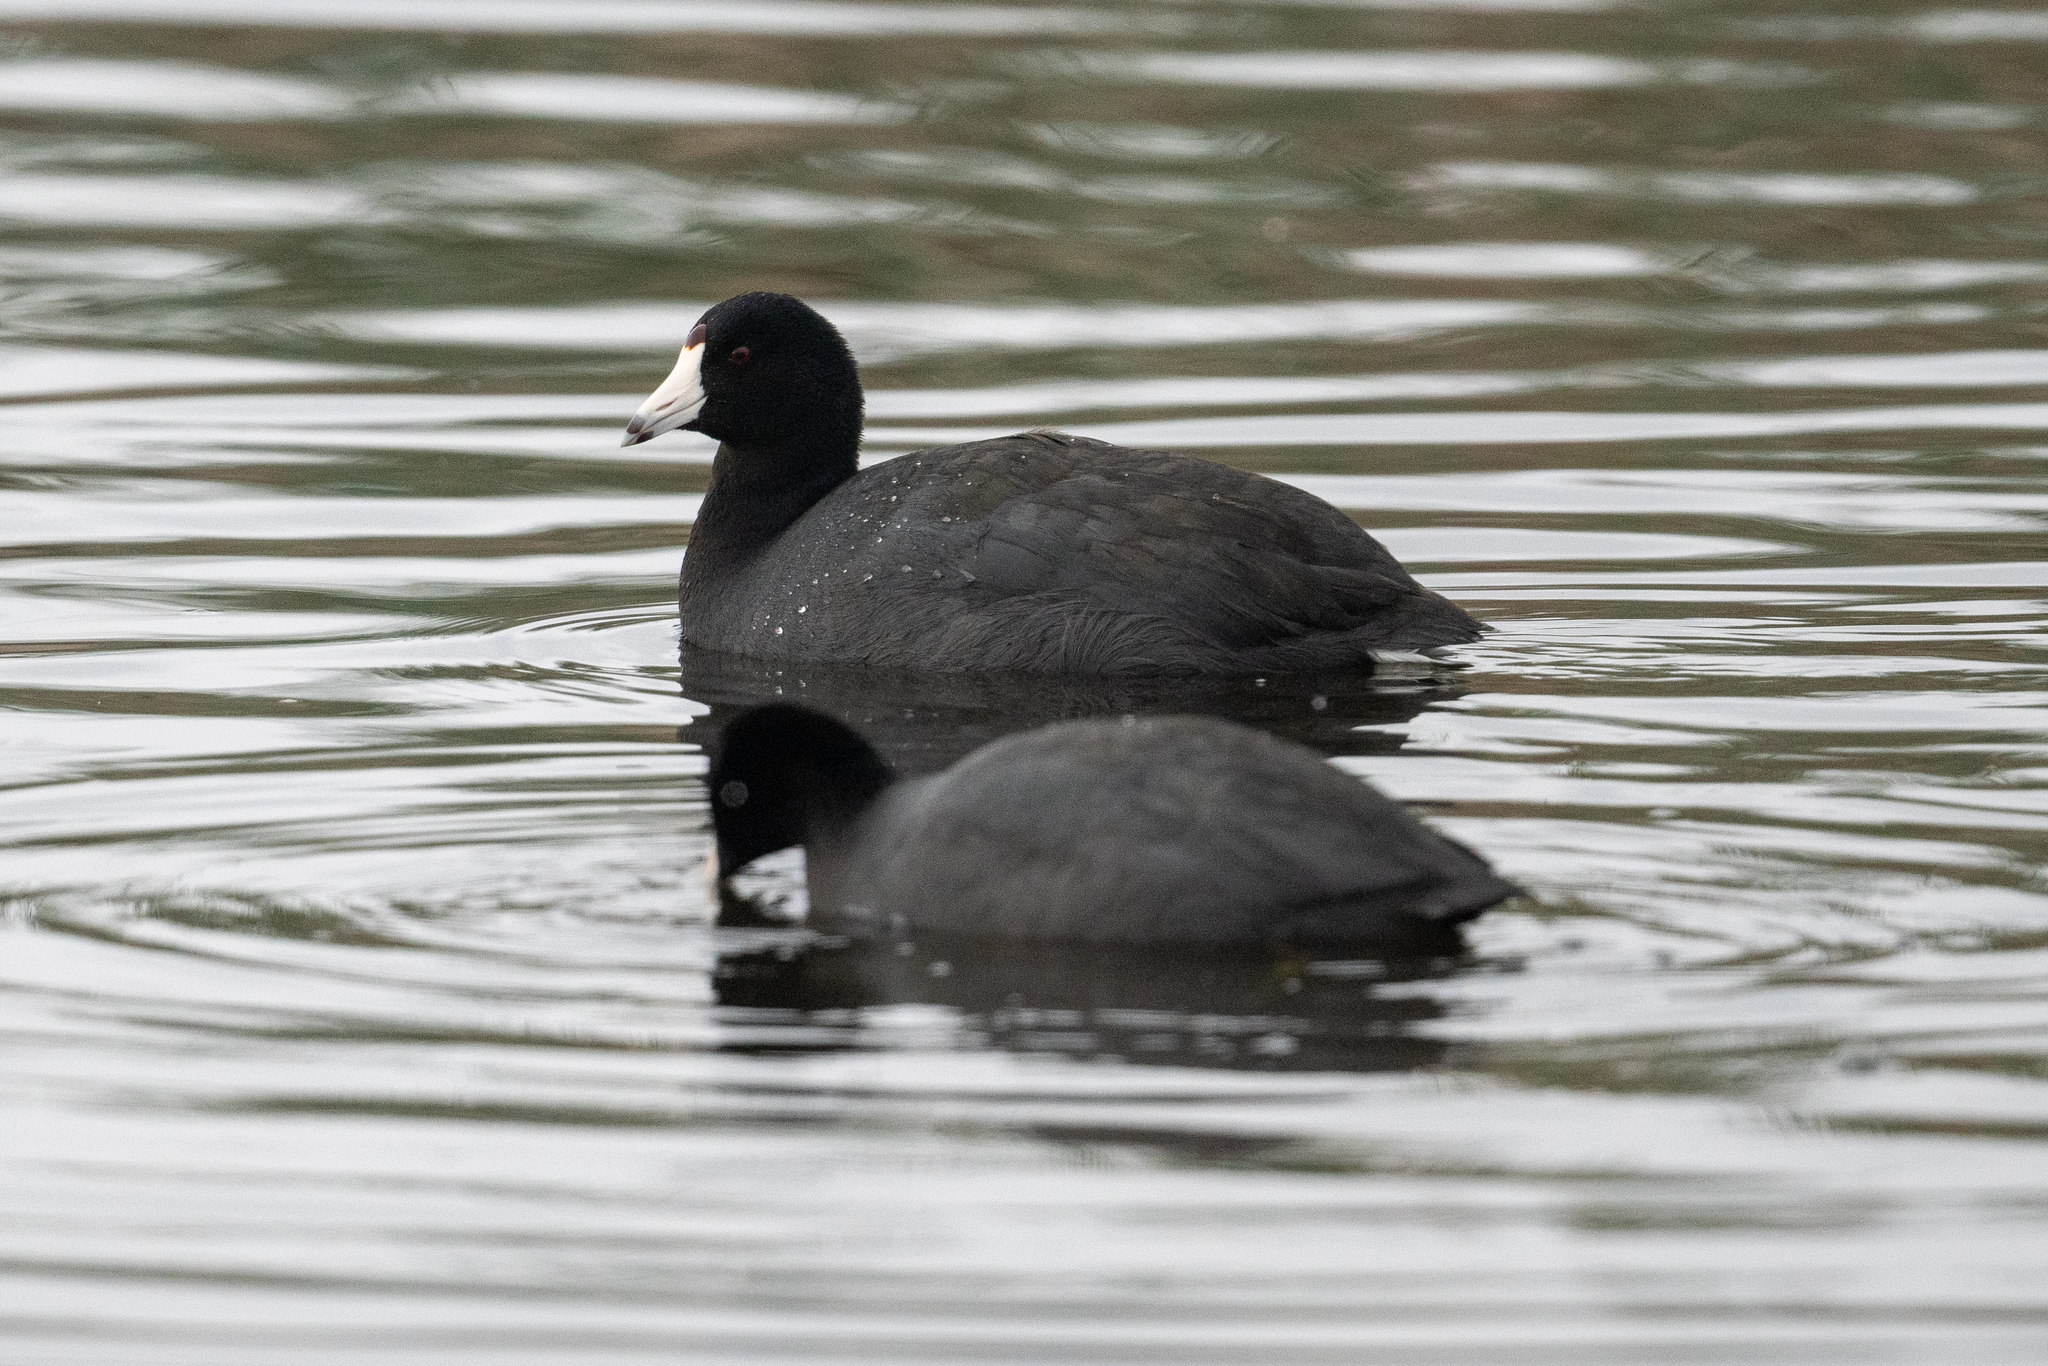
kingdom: Animalia
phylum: Chordata
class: Aves
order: Gruiformes
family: Rallidae
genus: Fulica
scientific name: Fulica americana
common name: American coot
